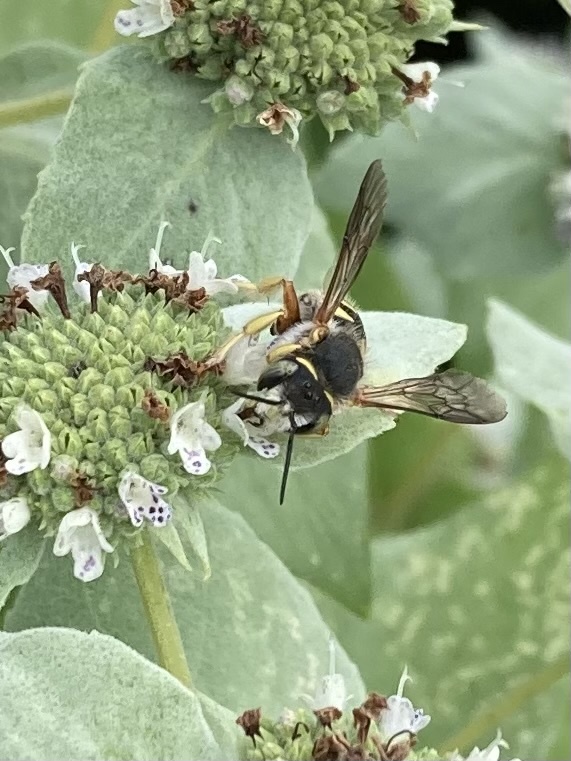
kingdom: Animalia
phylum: Arthropoda
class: Insecta
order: Hymenoptera
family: Megachilidae
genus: Anthidium
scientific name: Anthidium oblongatum
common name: Oblong wool carder bee
